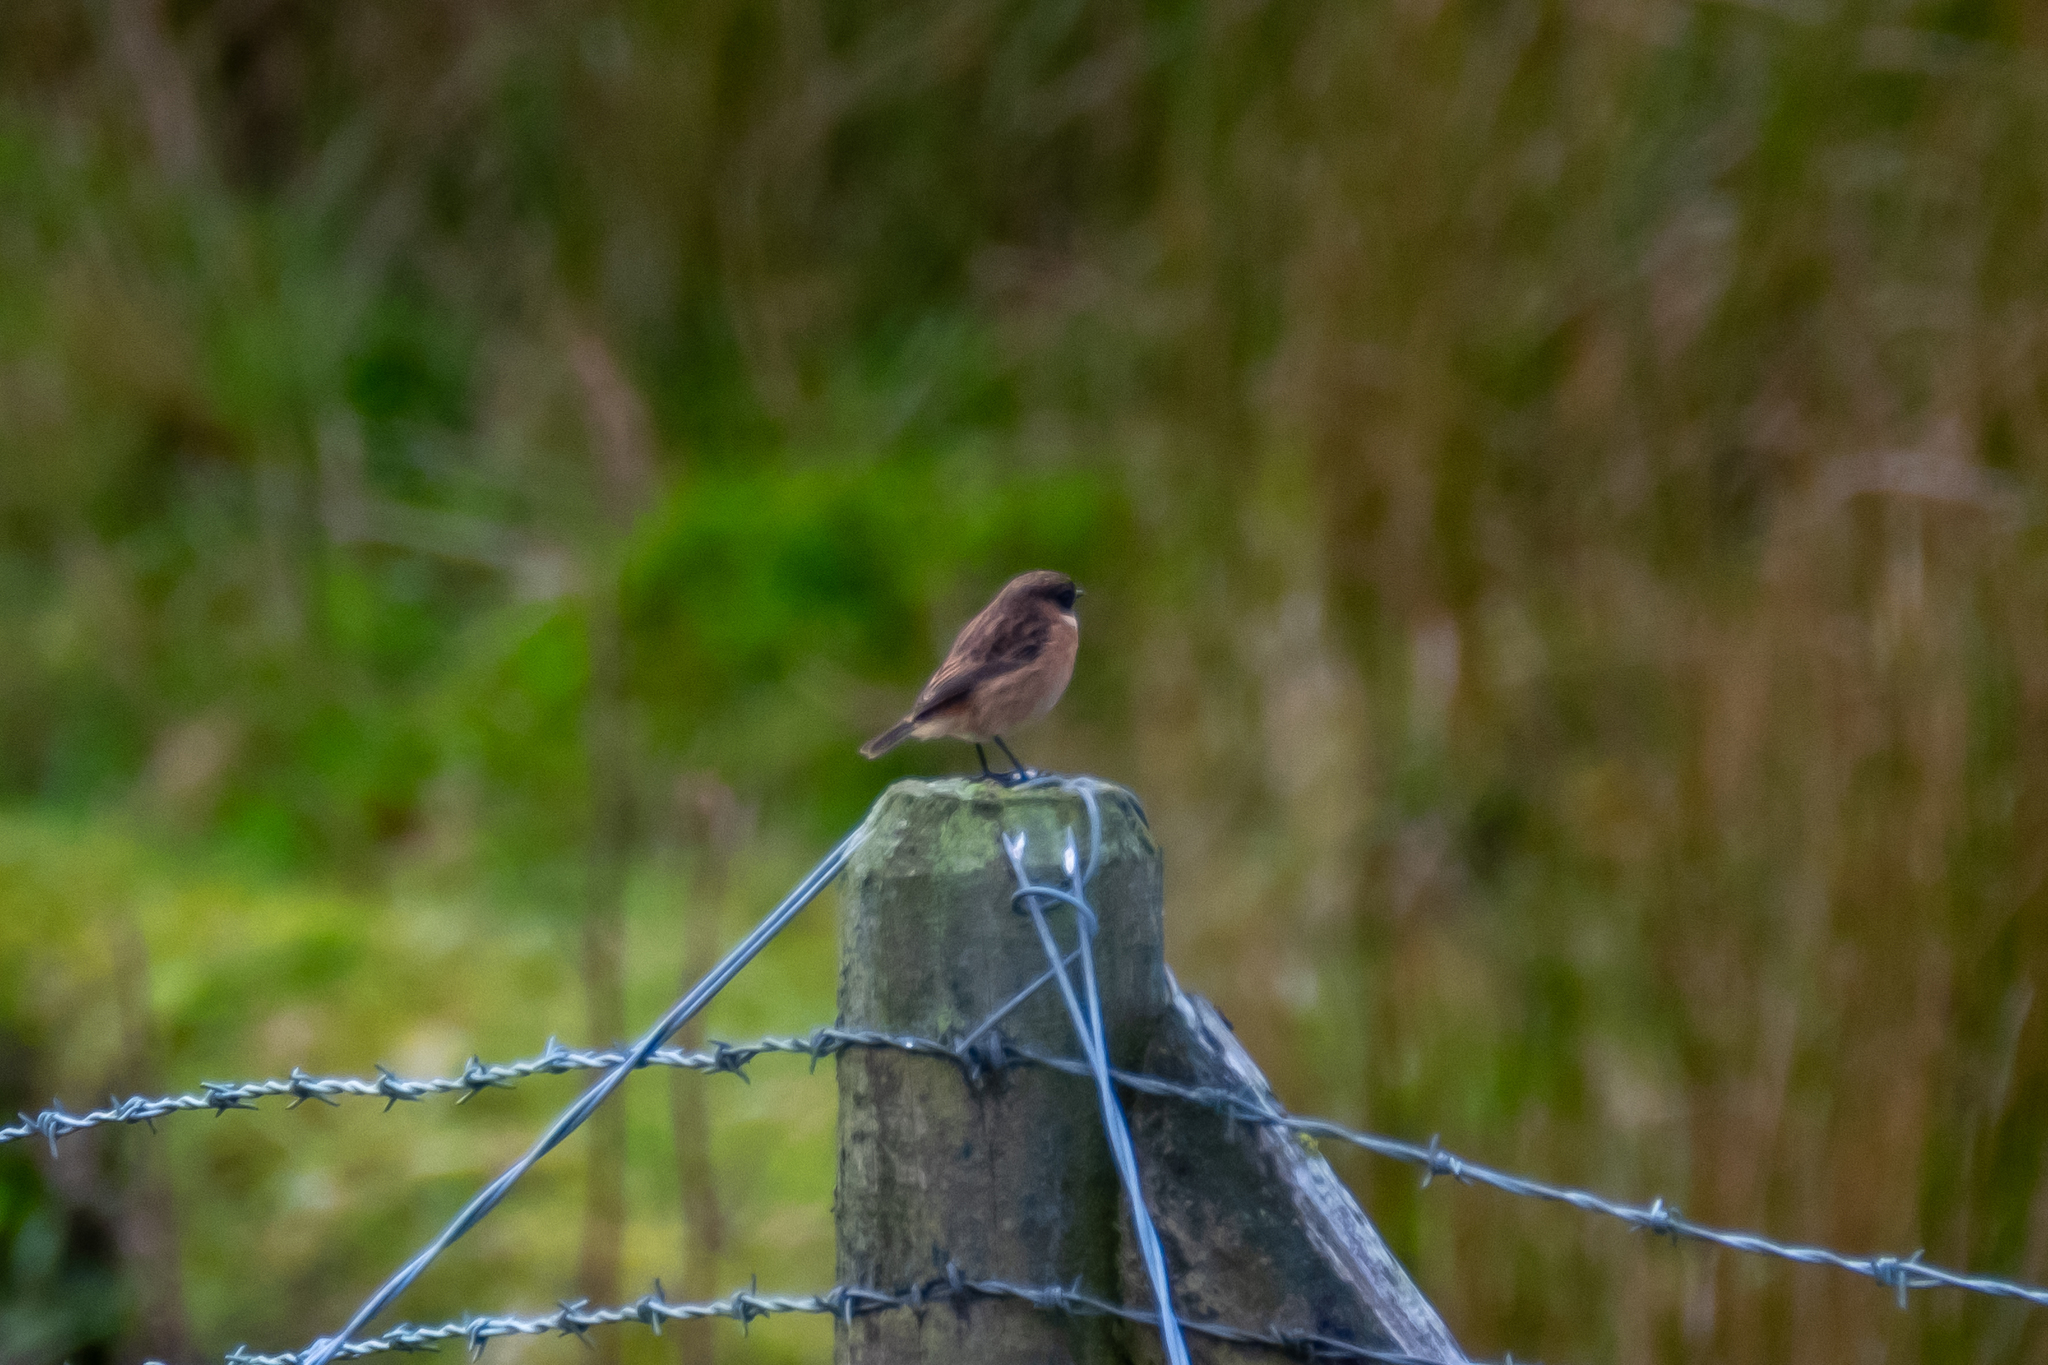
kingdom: Animalia
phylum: Chordata
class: Aves
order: Passeriformes
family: Muscicapidae
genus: Saxicola
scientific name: Saxicola rubicola
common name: European stonechat
